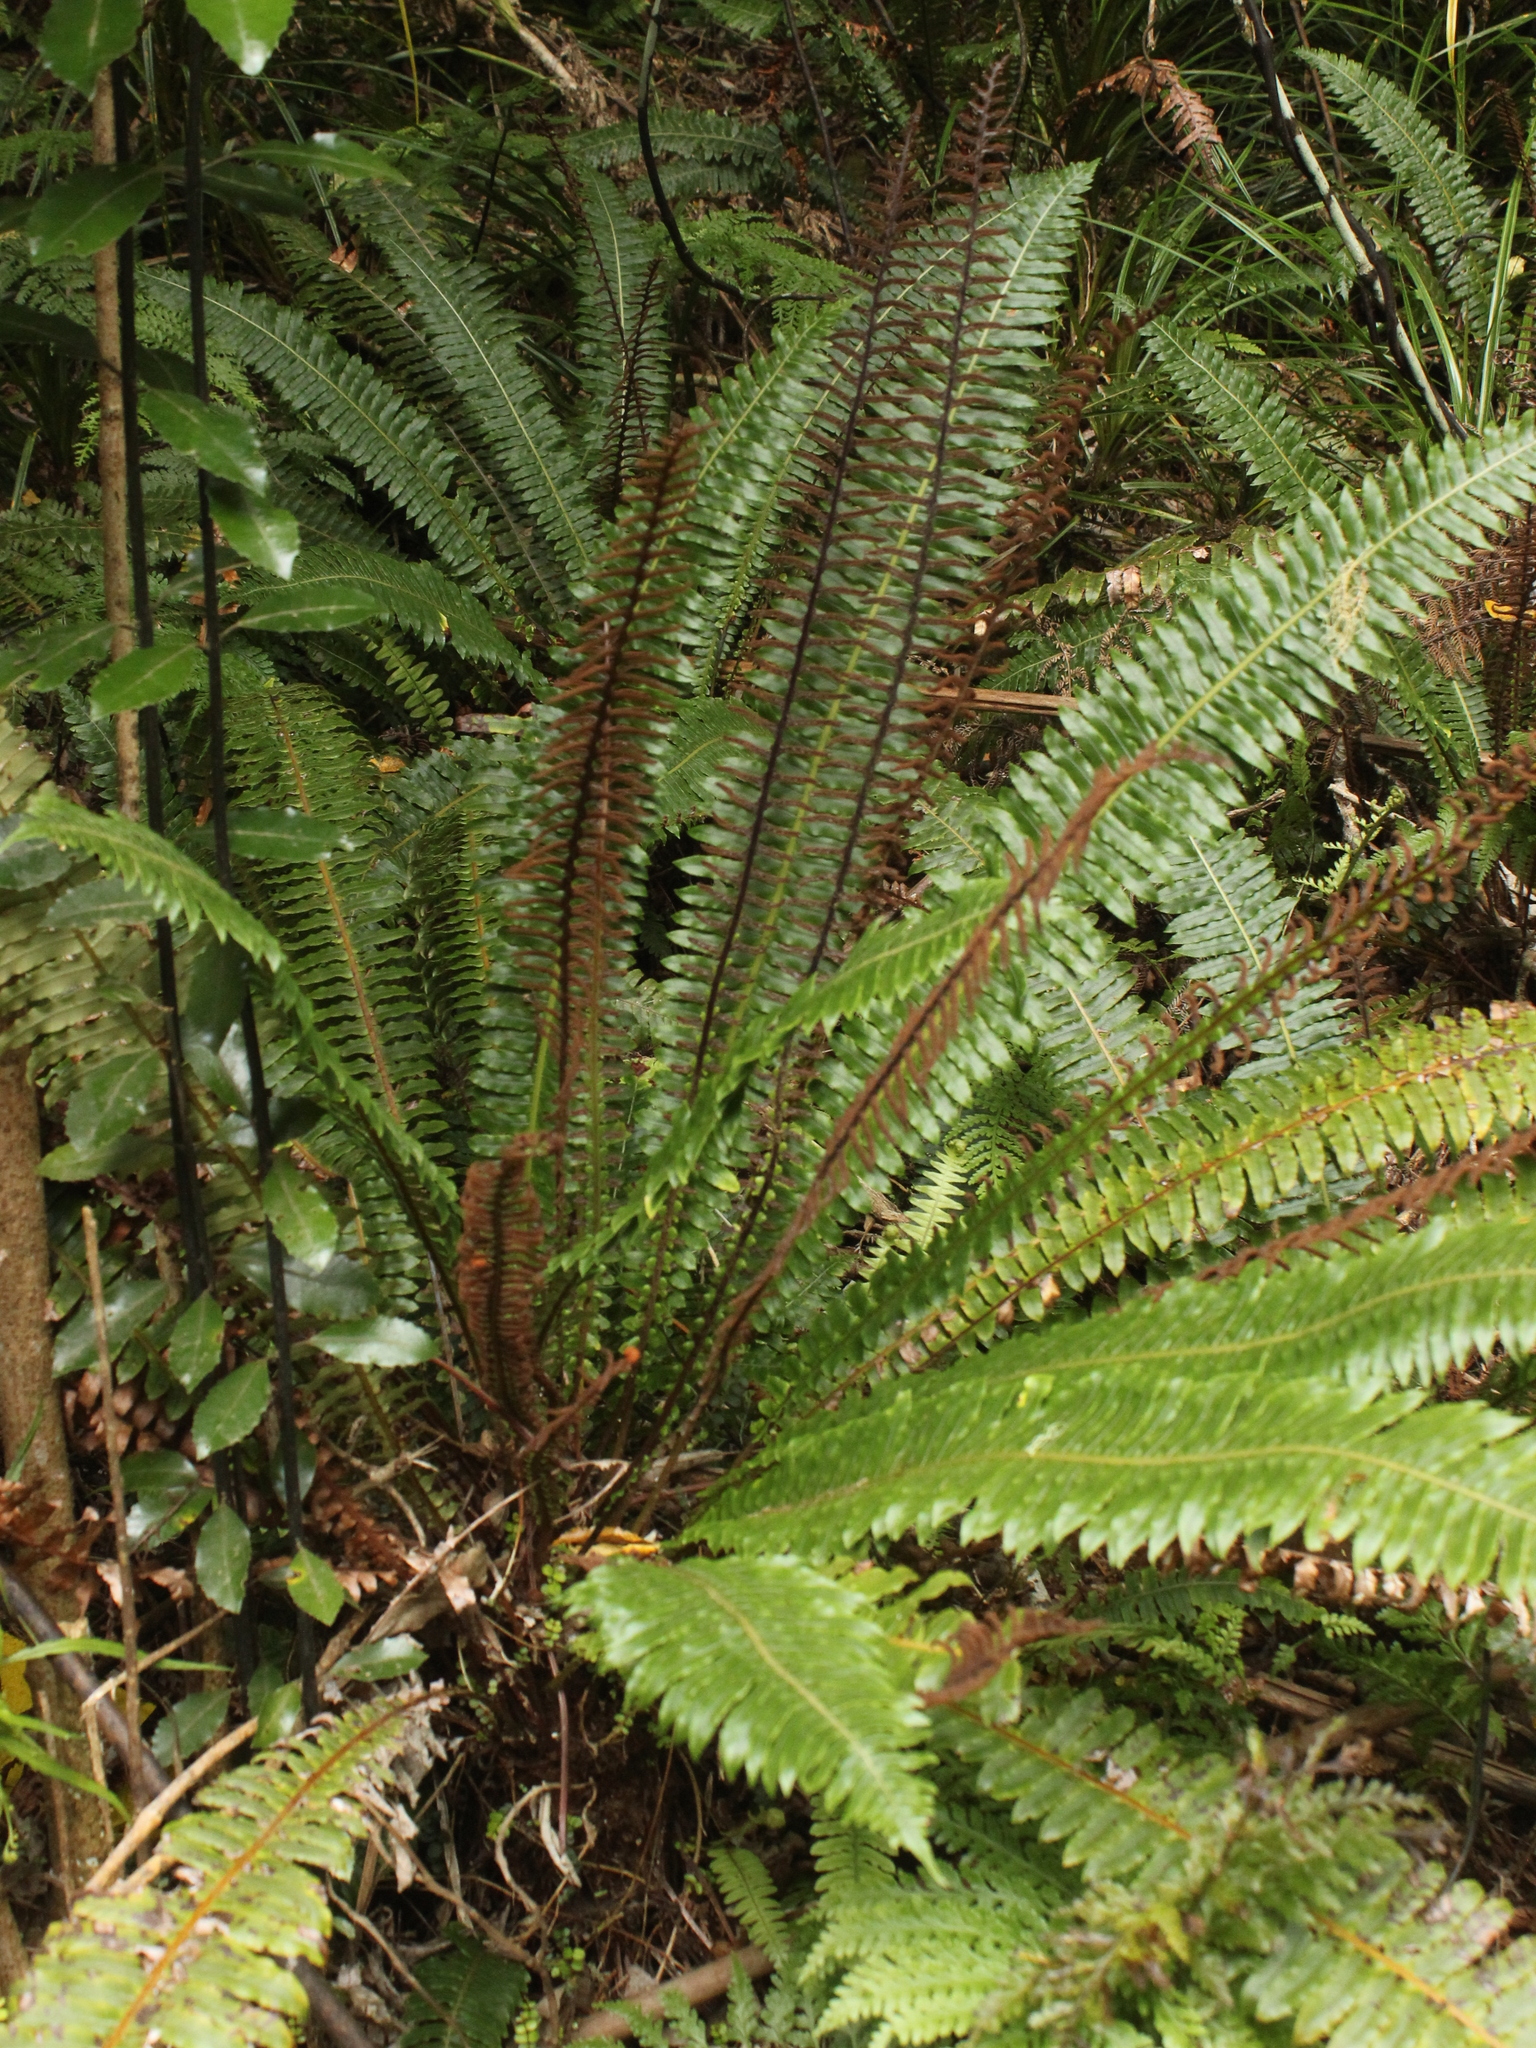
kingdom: Plantae
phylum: Tracheophyta
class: Polypodiopsida
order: Polypodiales
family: Blechnaceae
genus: Lomaria
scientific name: Lomaria discolor
